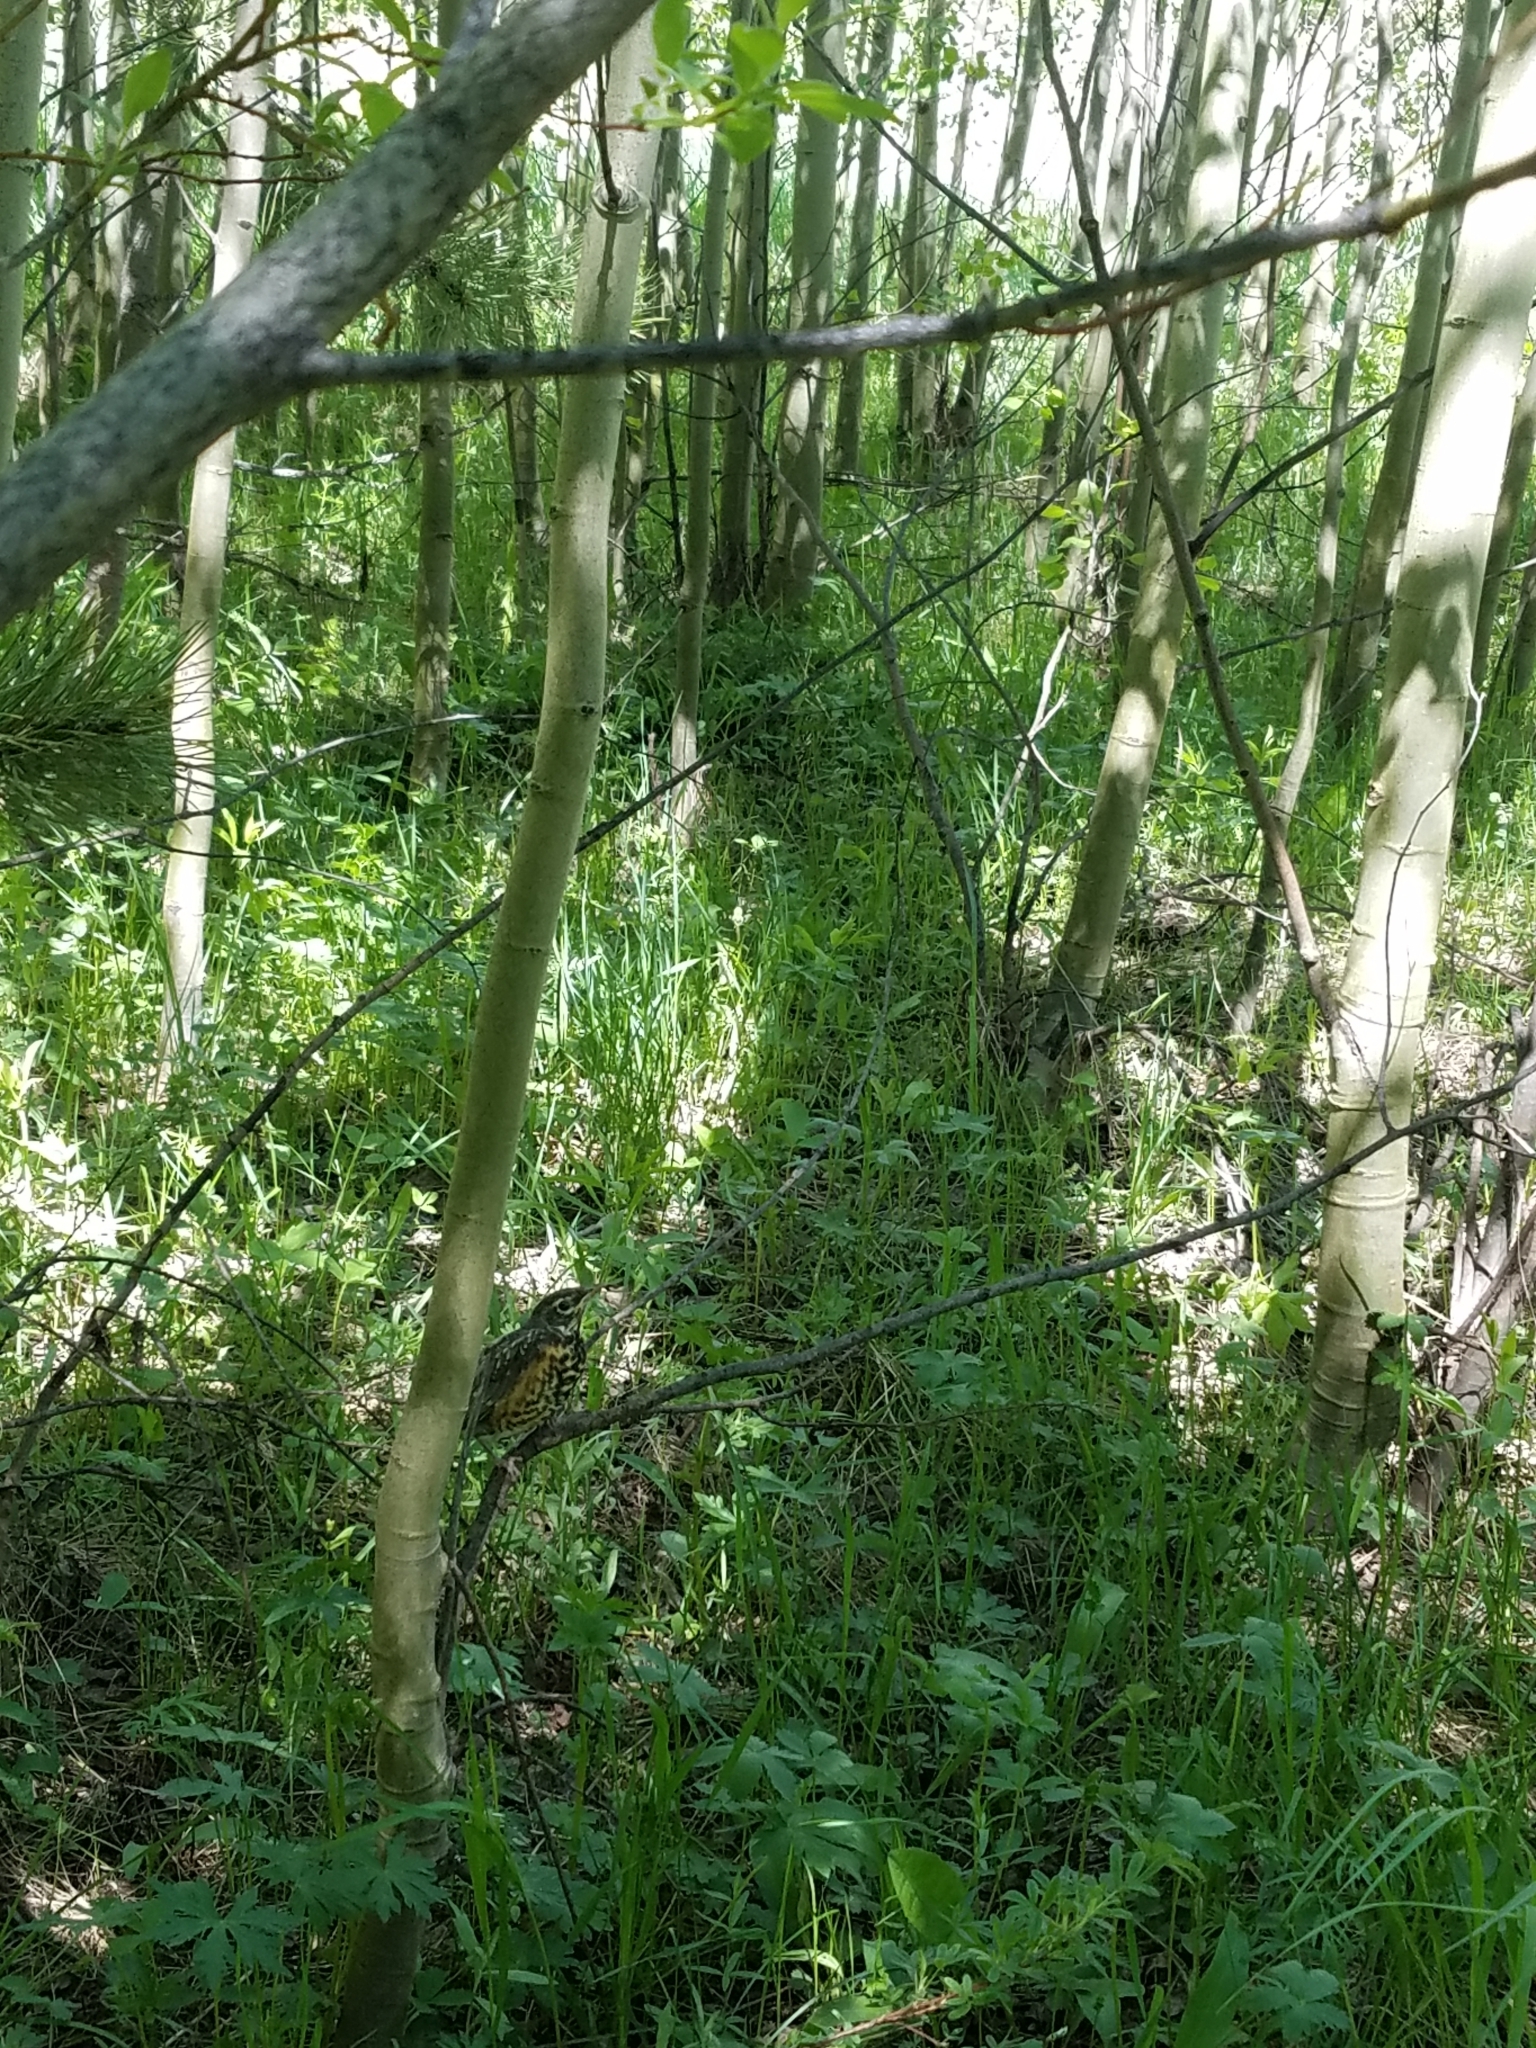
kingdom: Animalia
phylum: Chordata
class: Aves
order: Passeriformes
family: Turdidae
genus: Turdus
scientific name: Turdus migratorius
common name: American robin
